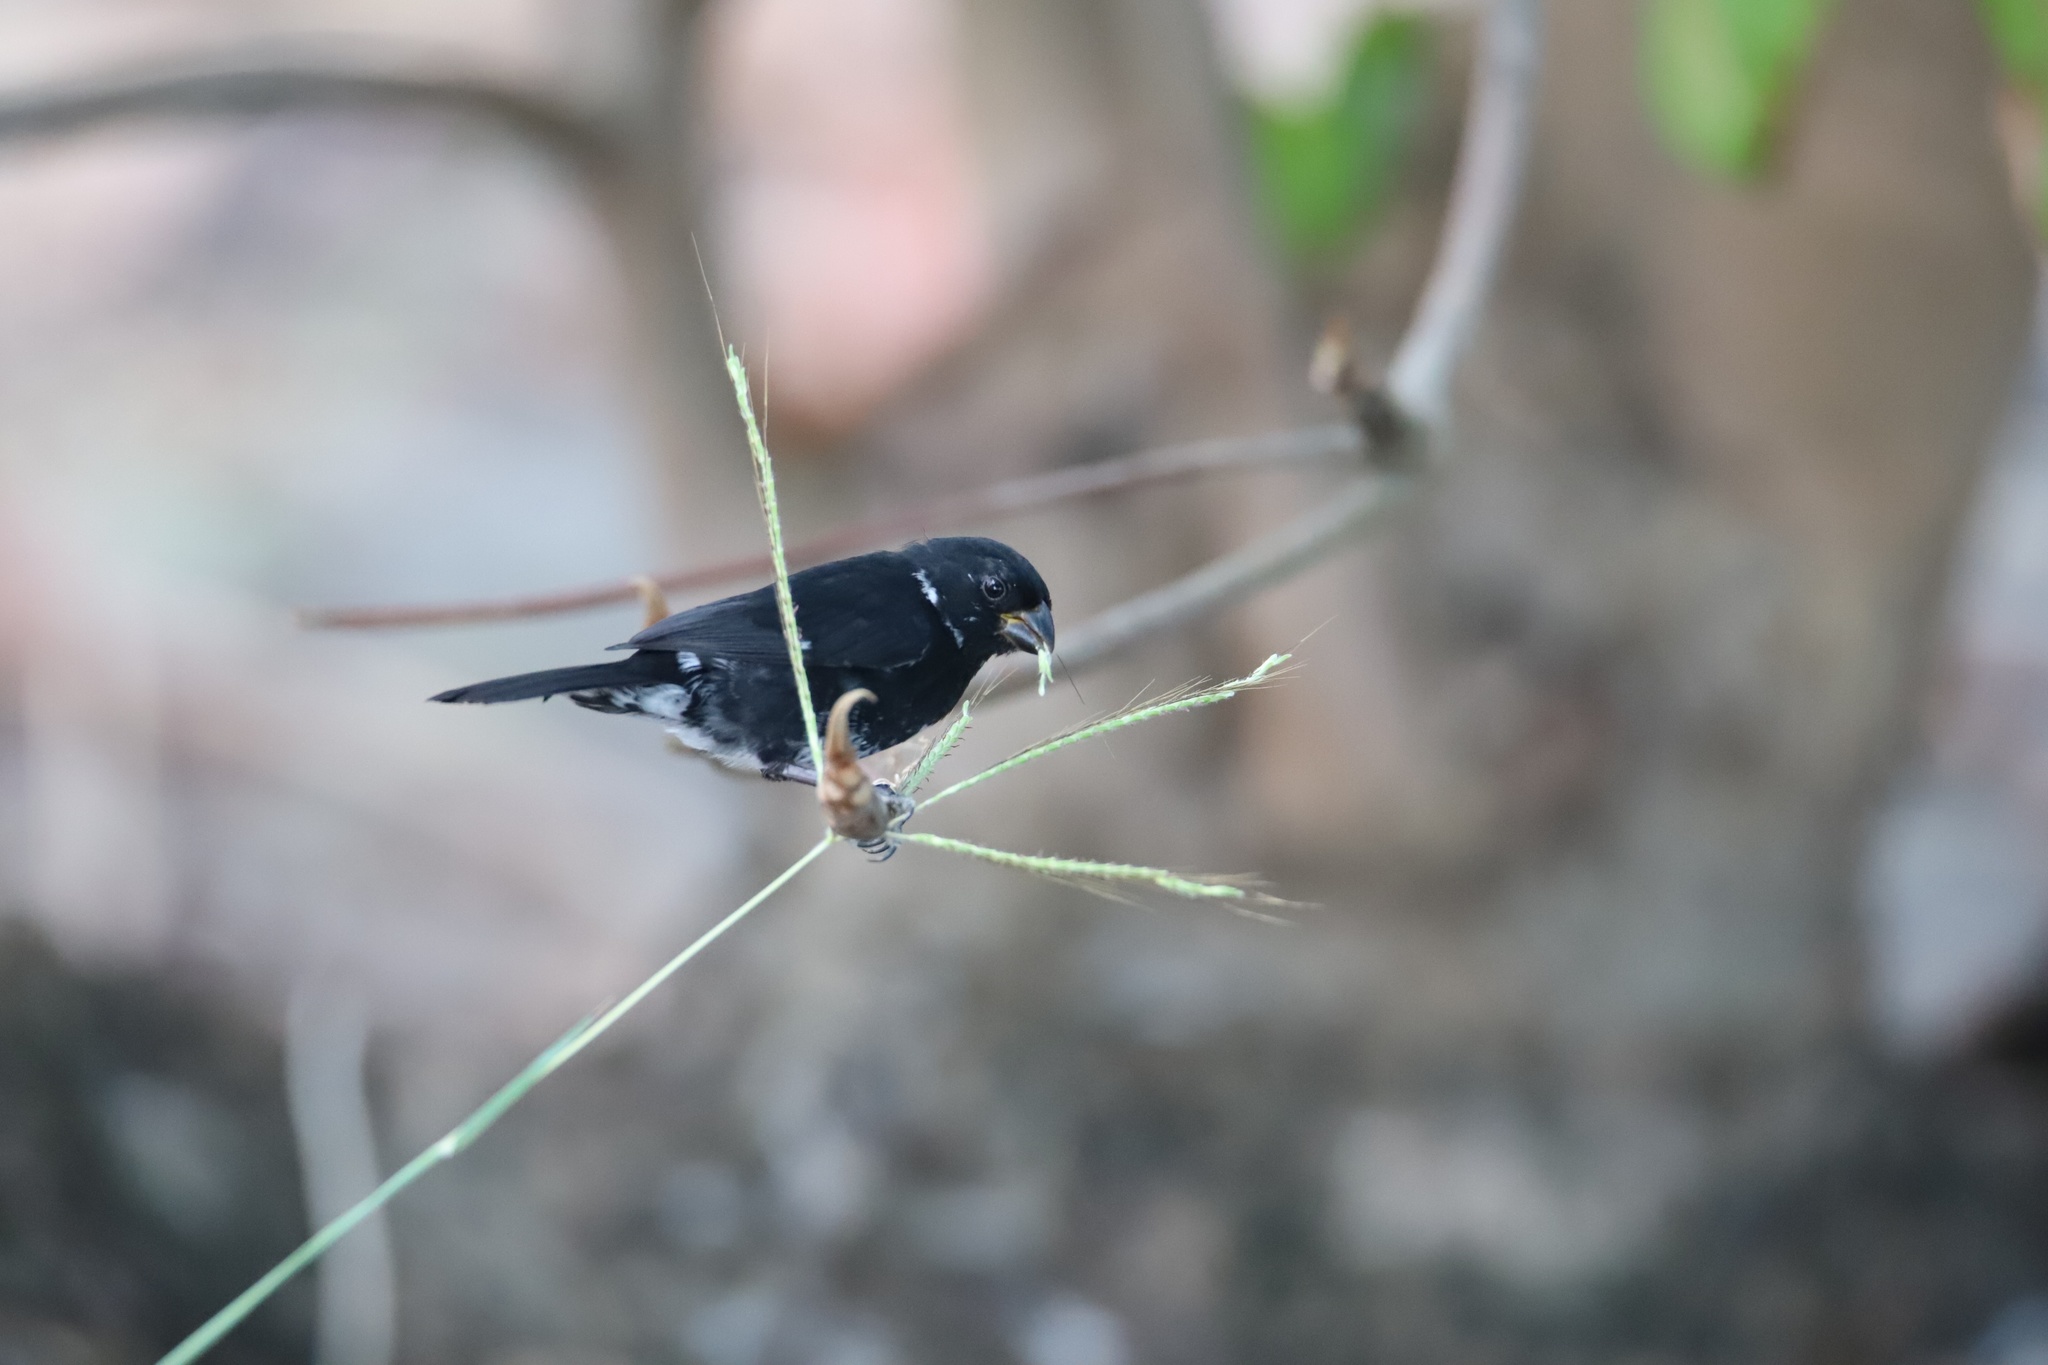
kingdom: Animalia
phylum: Chordata
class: Aves
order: Passeriformes
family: Thraupidae
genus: Sporophila
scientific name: Sporophila corvina
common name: Variable seedeater
